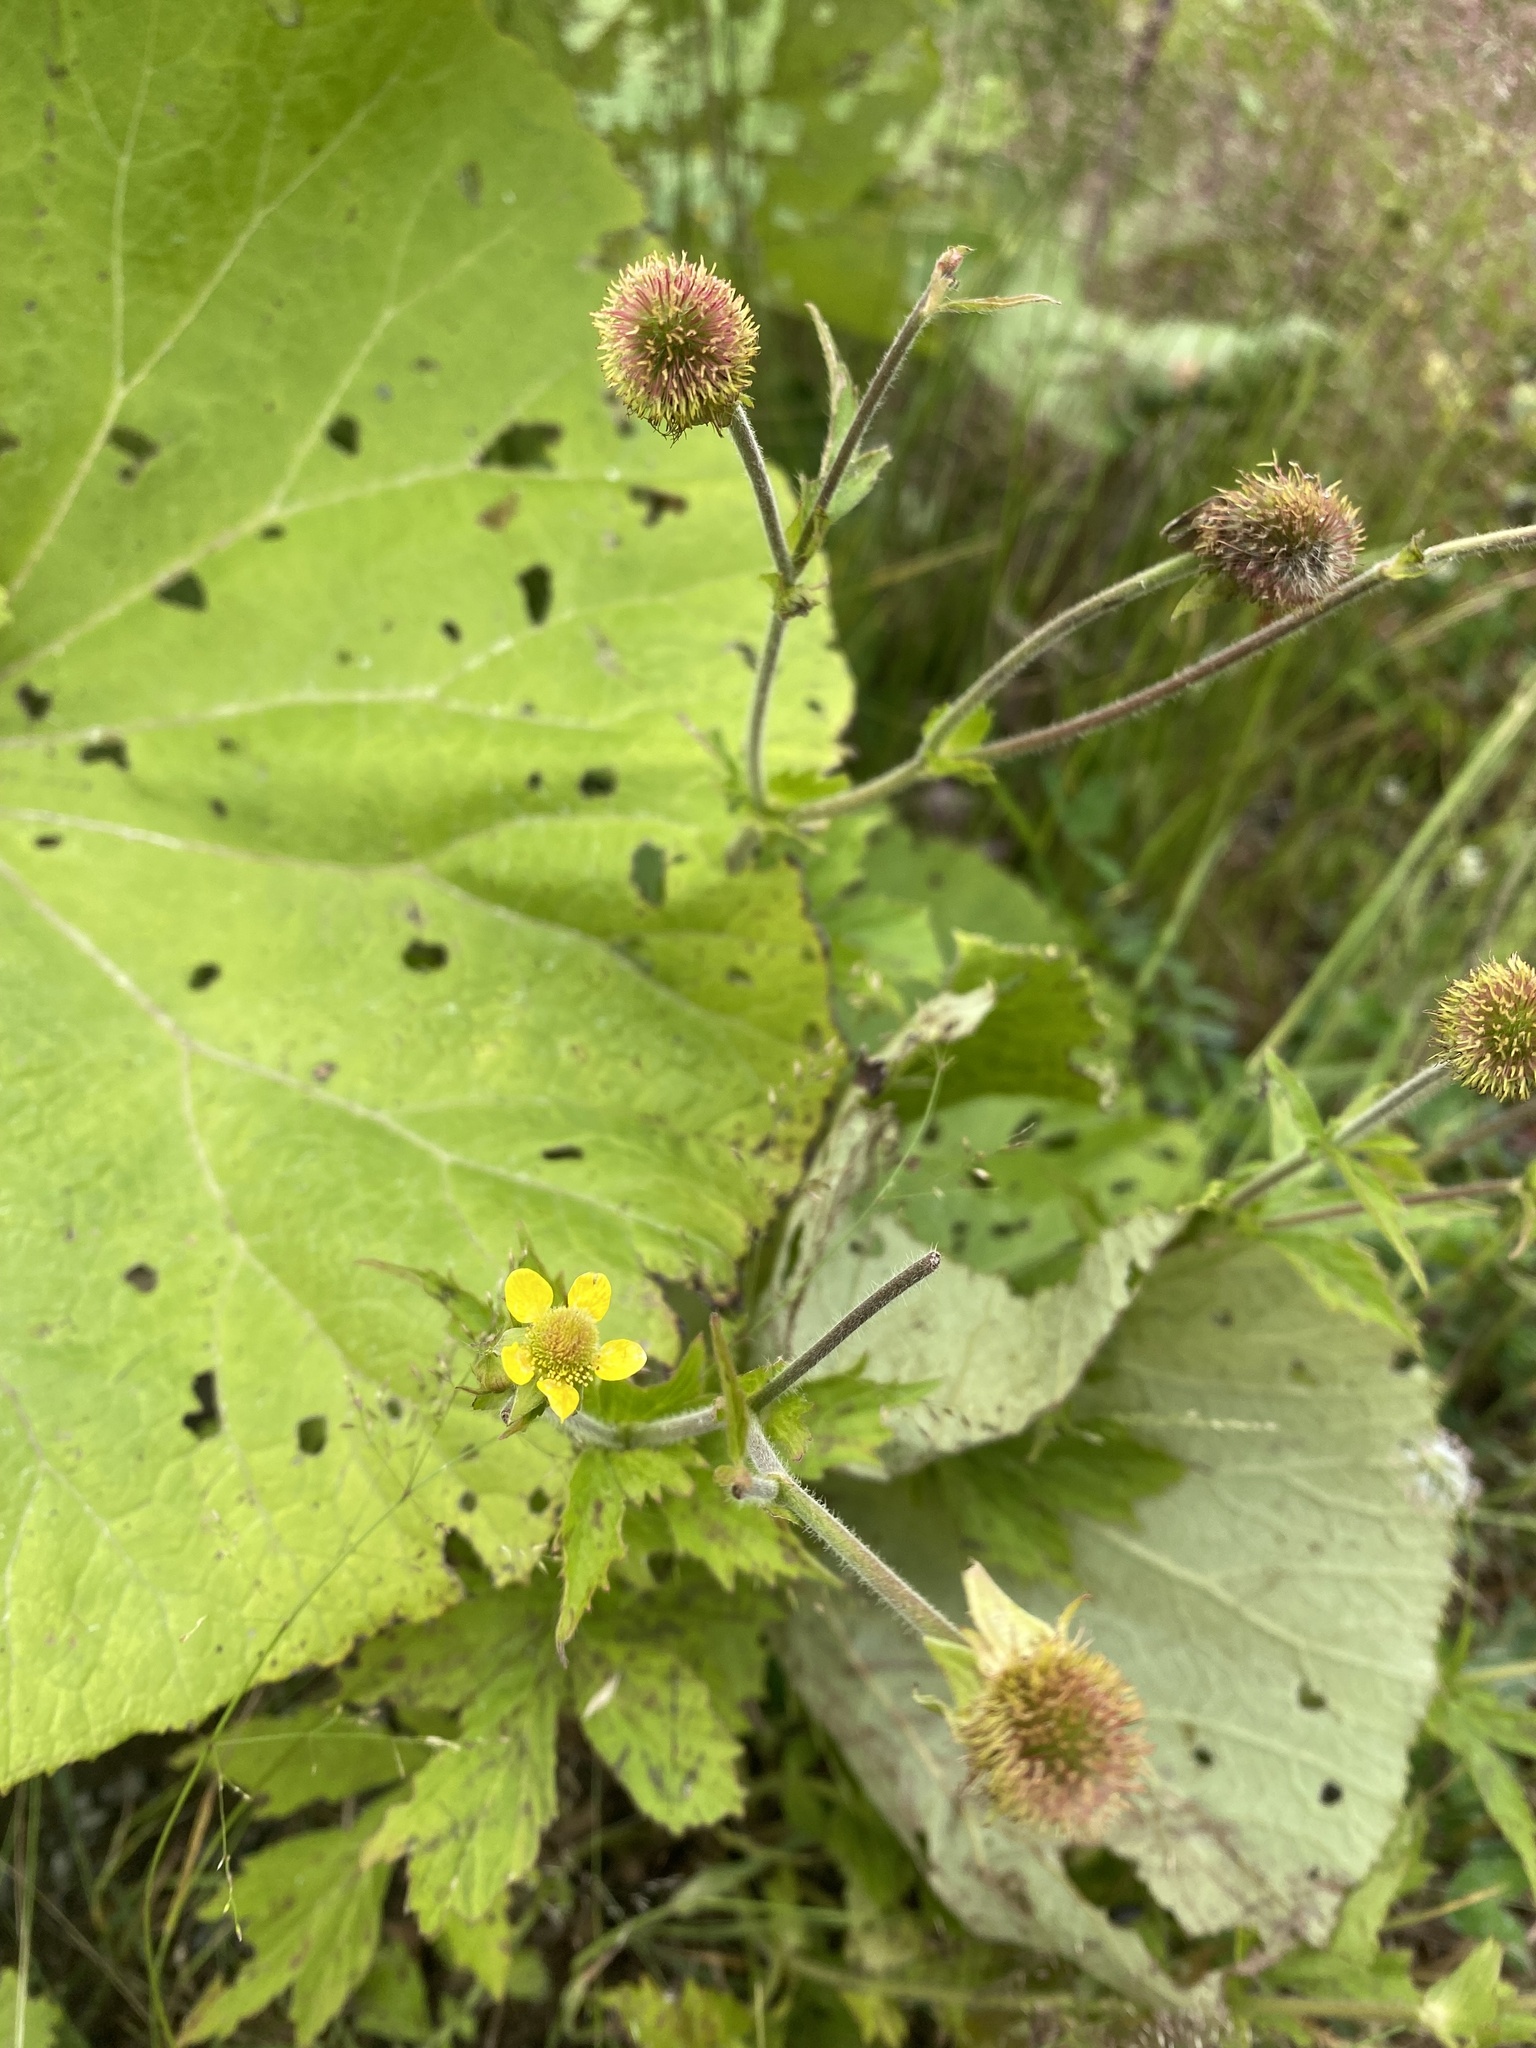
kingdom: Plantae
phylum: Tracheophyta
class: Magnoliopsida
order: Rosales
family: Rosaceae
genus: Geum
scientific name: Geum aleppicum
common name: Yellow avens
